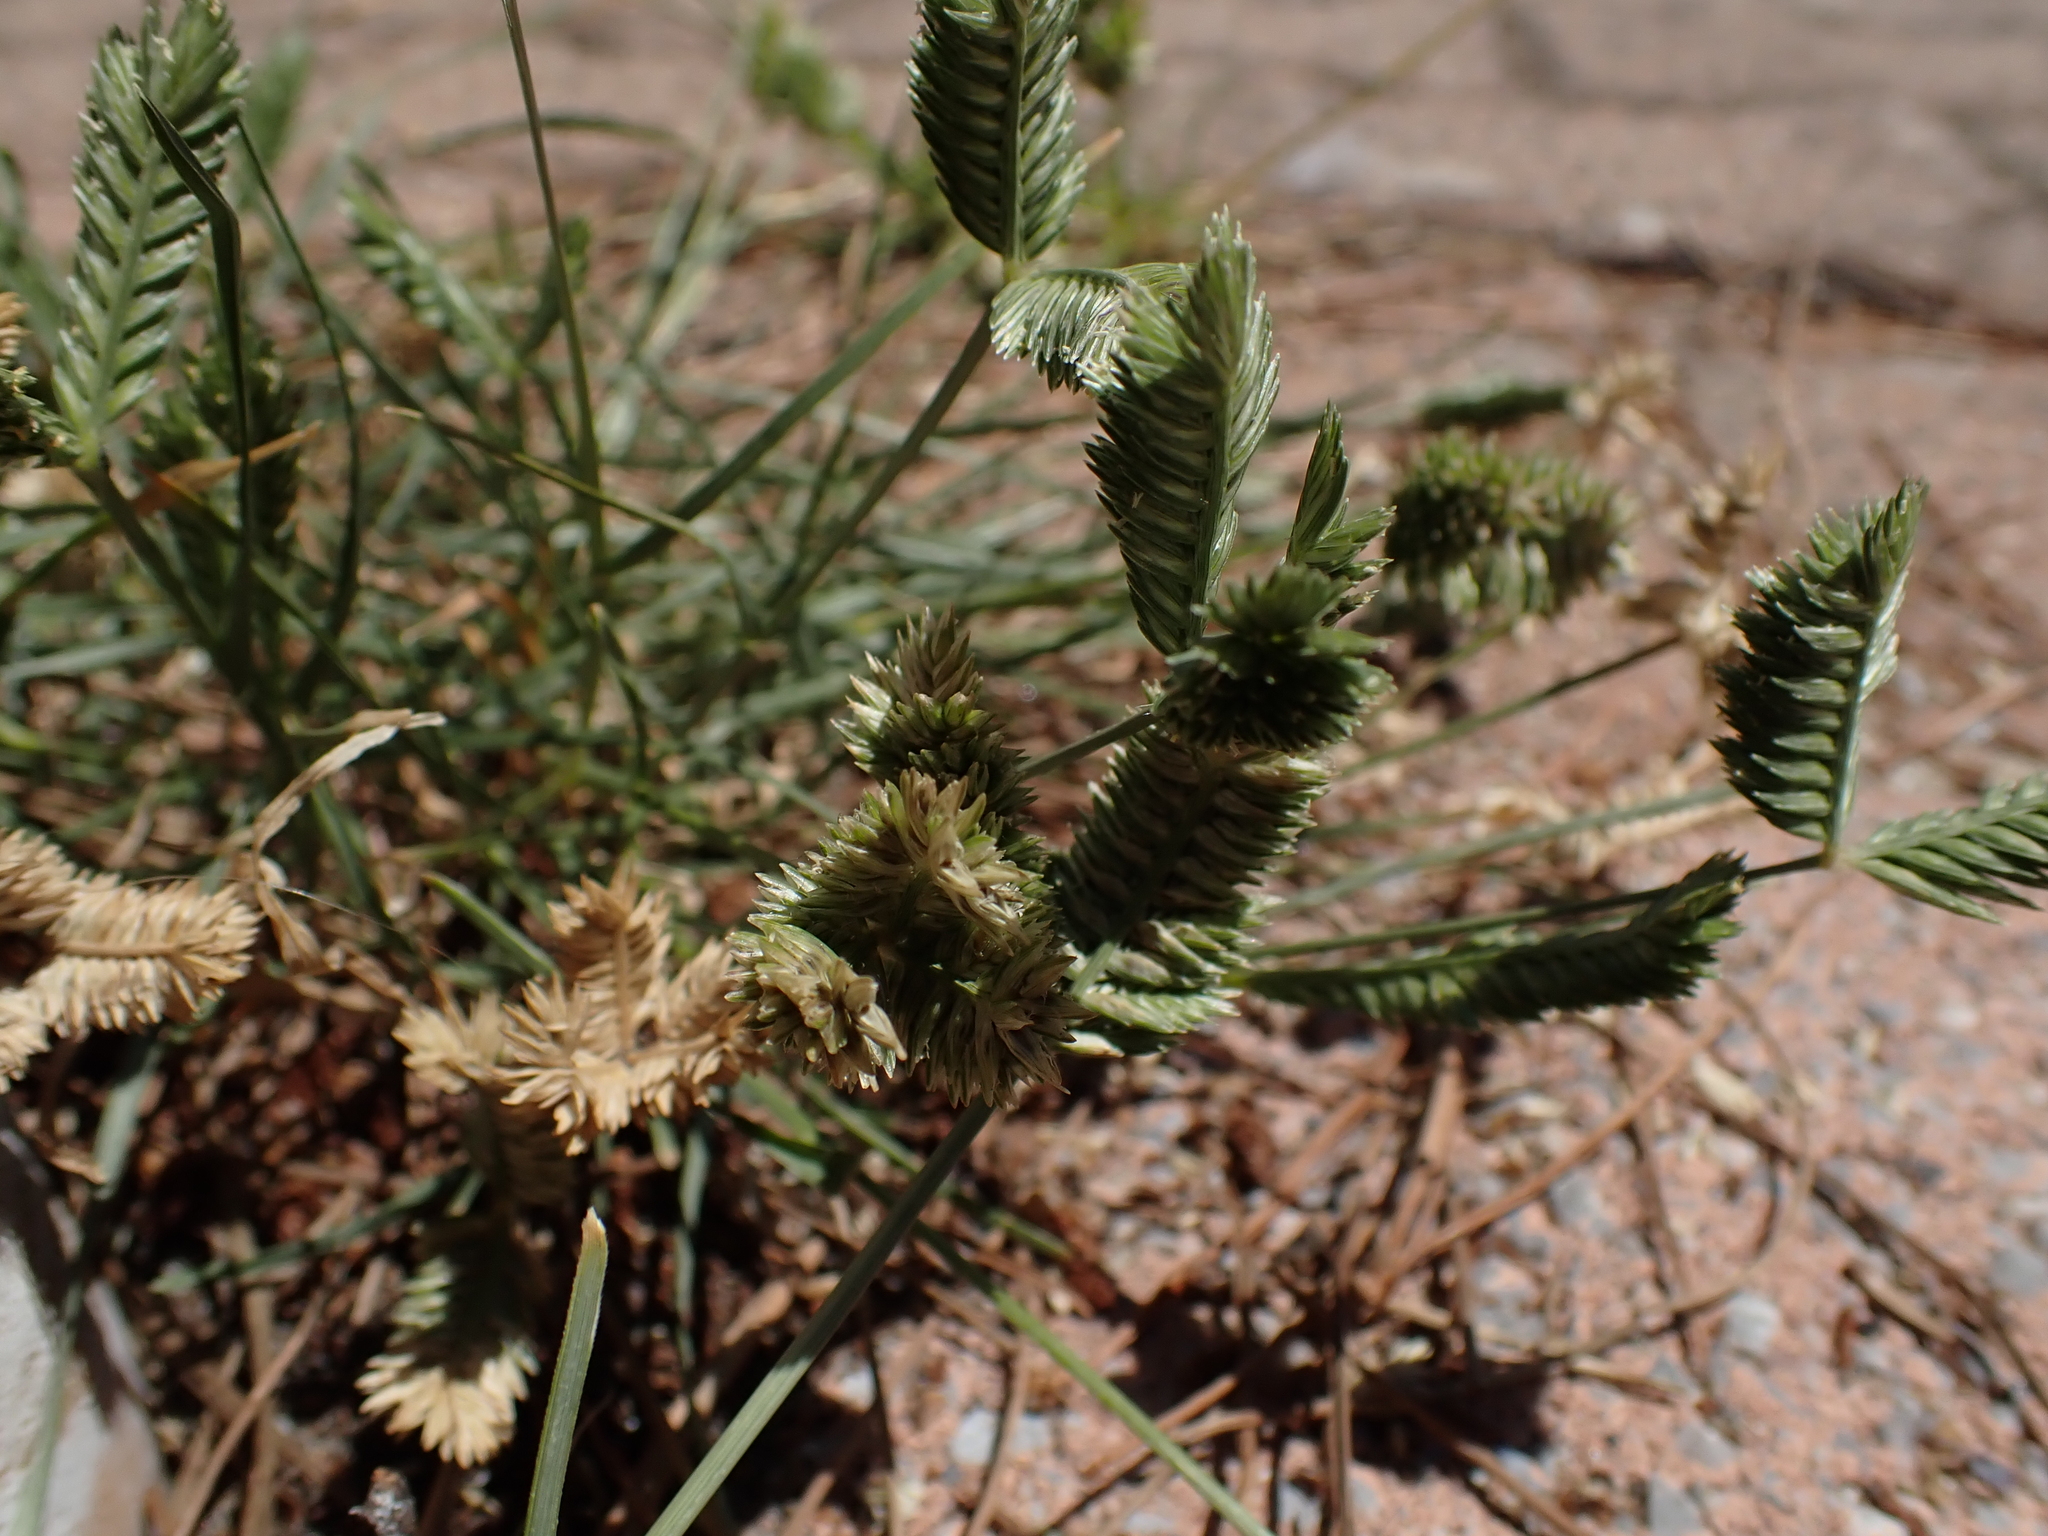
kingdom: Plantae
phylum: Tracheophyta
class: Liliopsida
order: Poales
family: Poaceae
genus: Eleusine
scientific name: Eleusine tristachya
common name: American yard-grass
